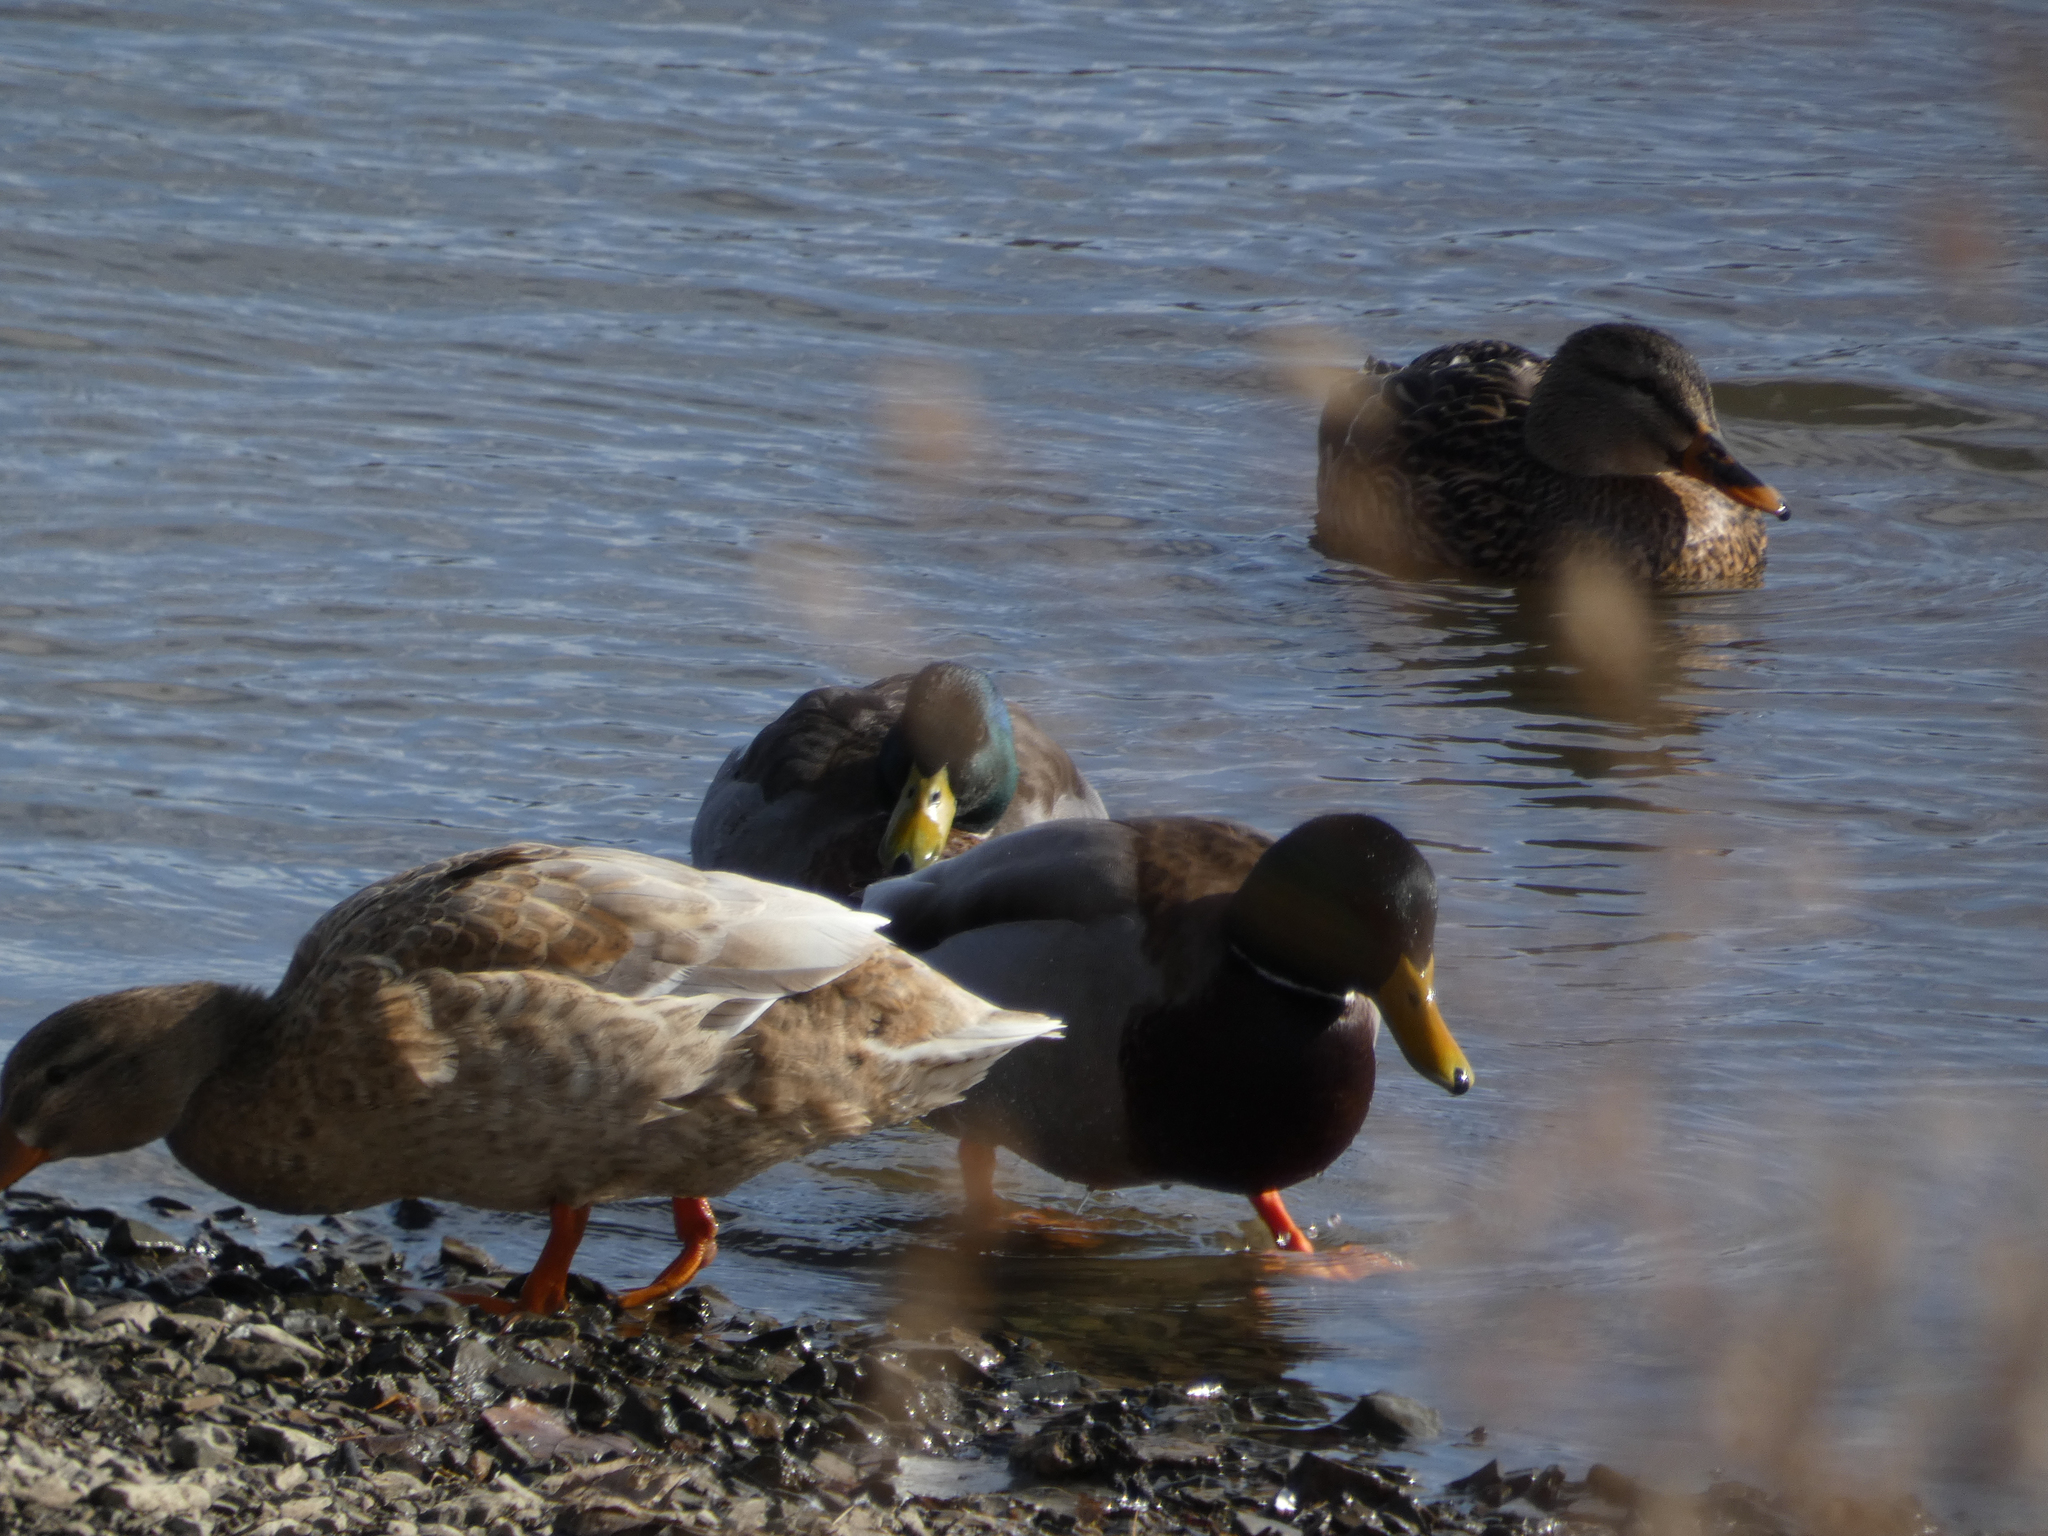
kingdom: Animalia
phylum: Chordata
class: Aves
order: Anseriformes
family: Anatidae
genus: Anas
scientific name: Anas platyrhynchos
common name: Mallard
